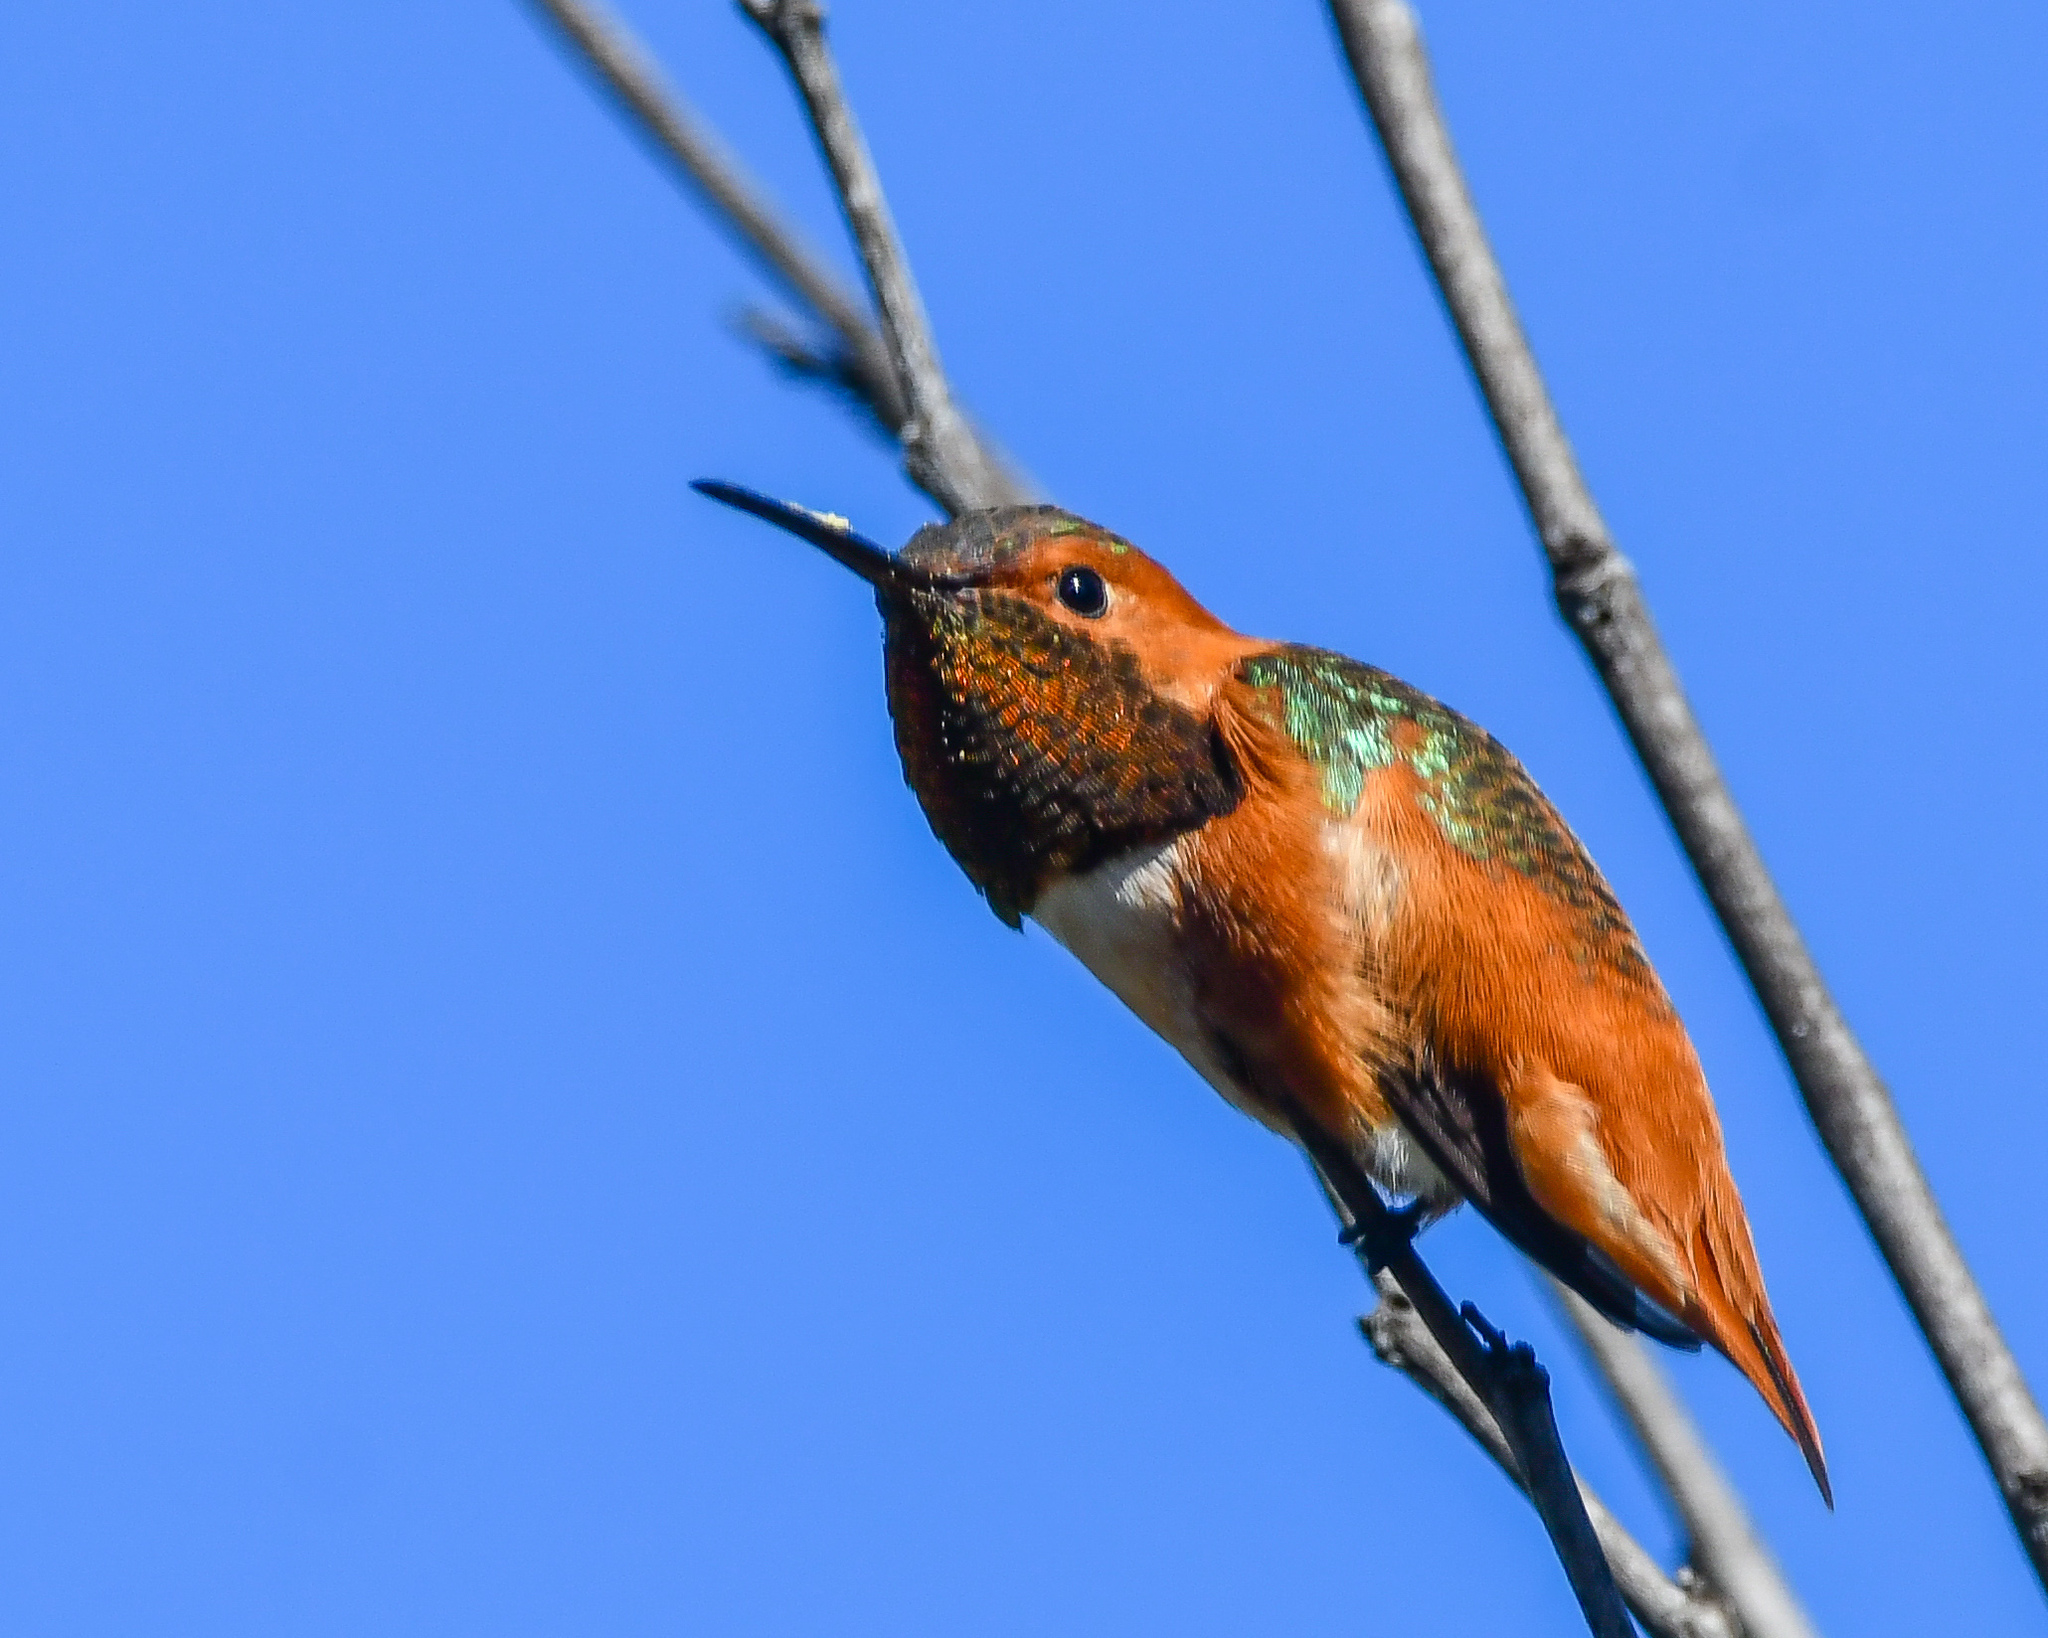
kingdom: Animalia
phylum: Chordata
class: Aves
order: Apodiformes
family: Trochilidae
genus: Selasphorus
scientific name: Selasphorus sasin
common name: Allen's hummingbird
